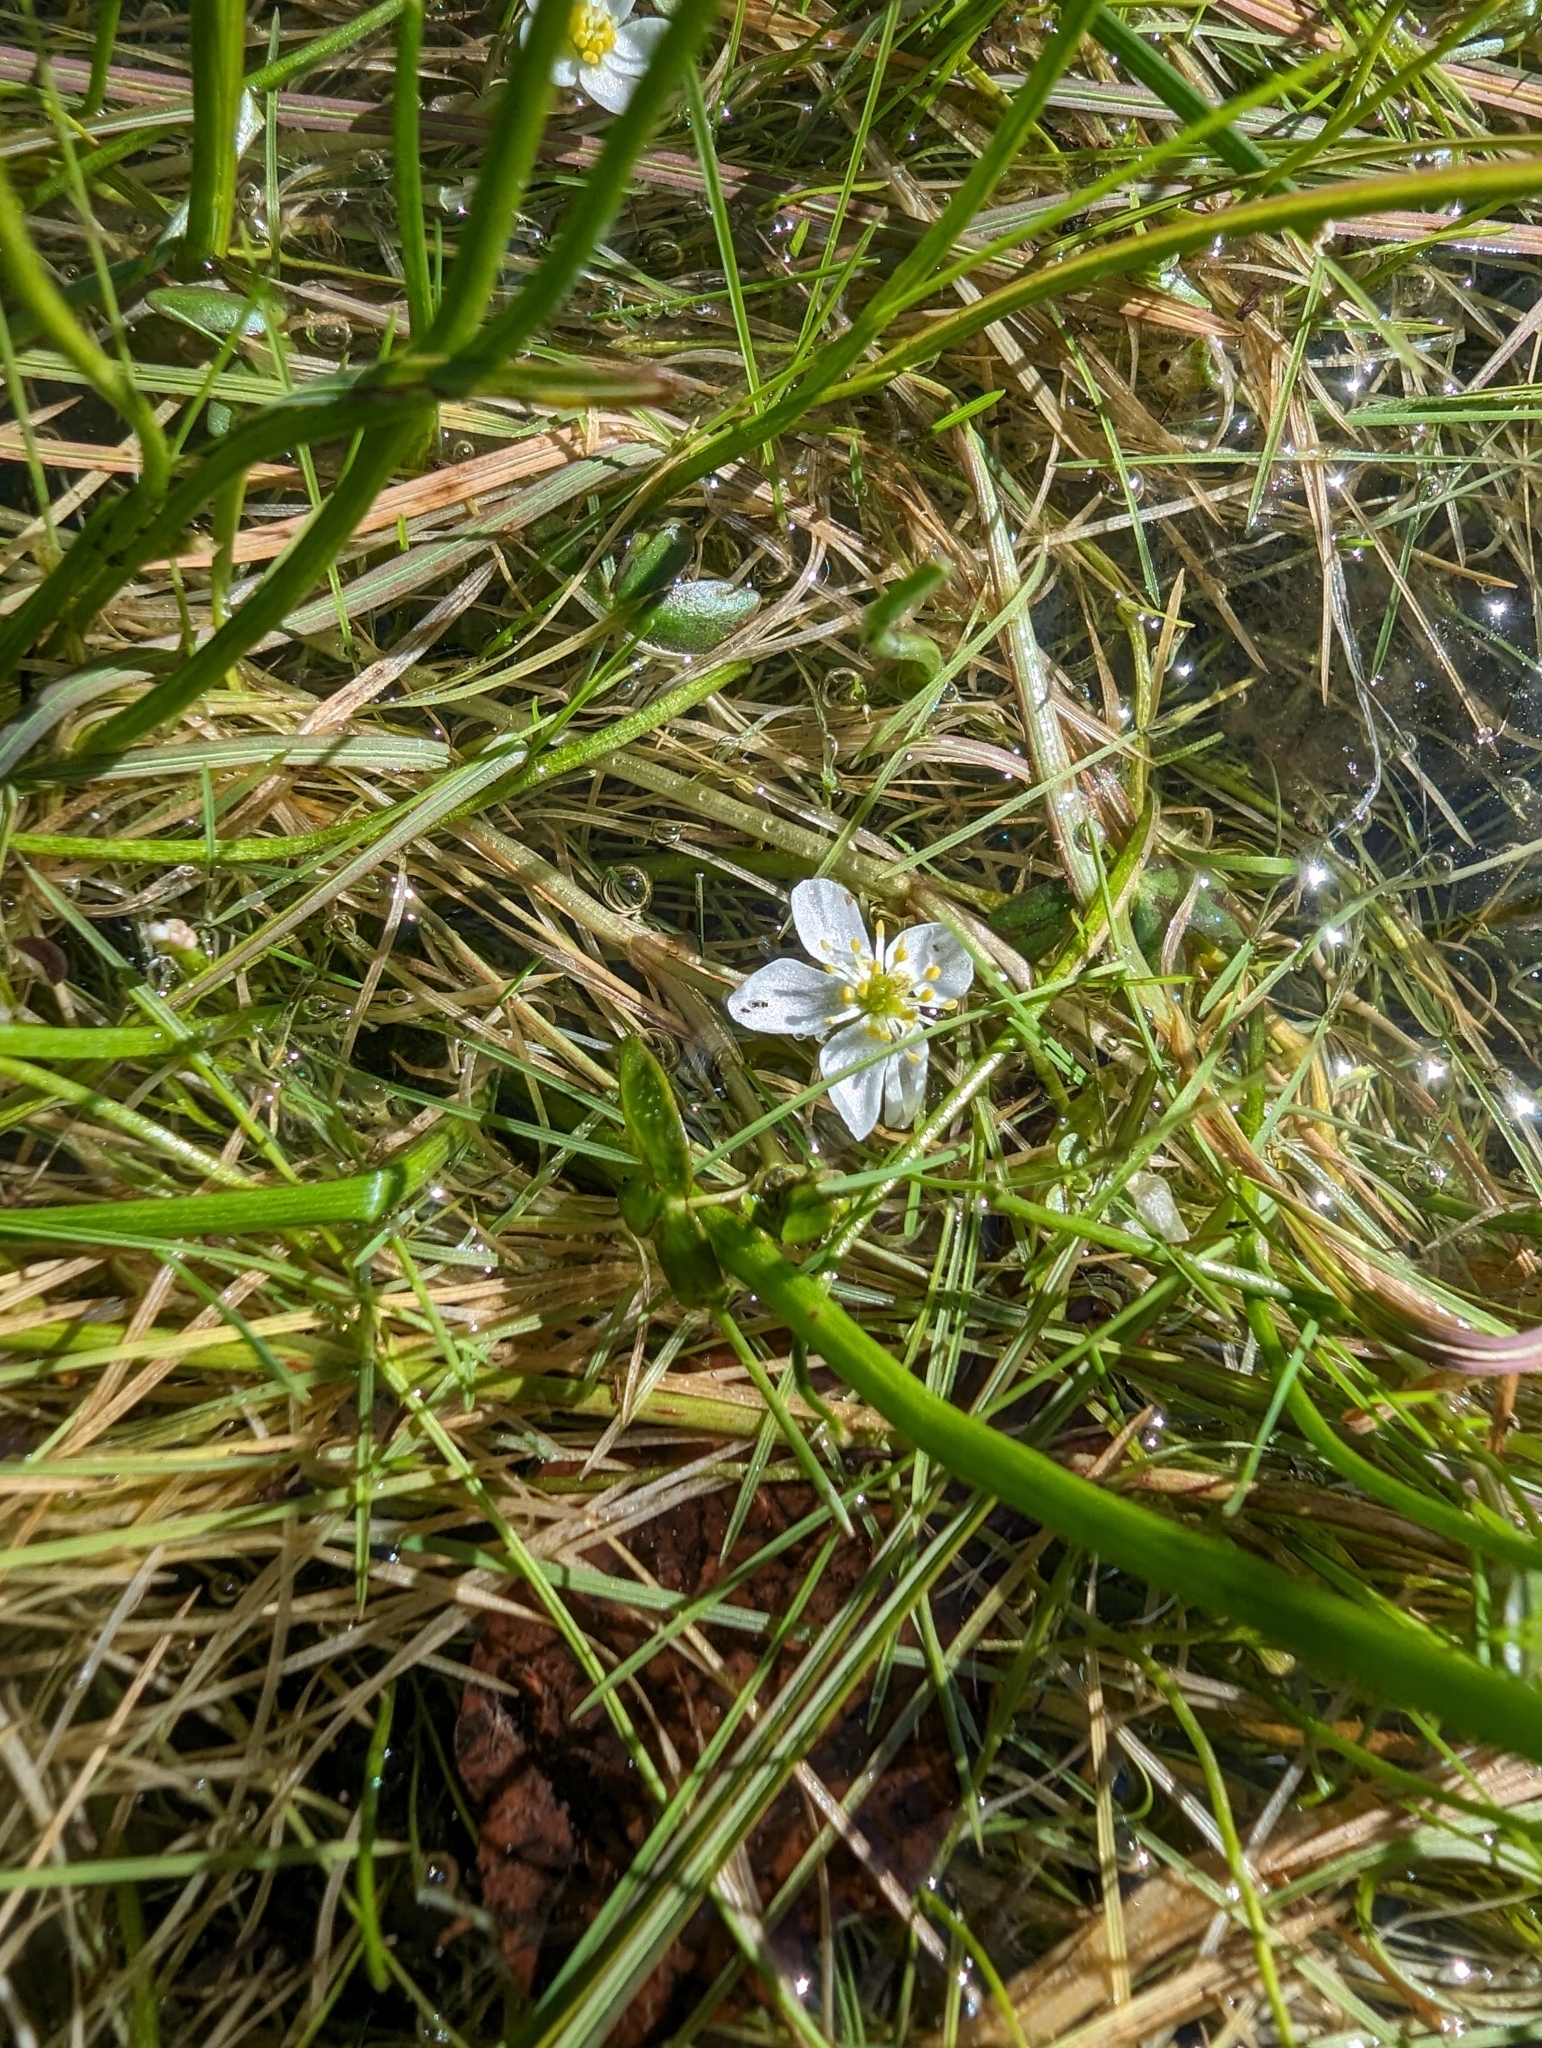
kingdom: Plantae
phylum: Tracheophyta
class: Magnoliopsida
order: Ranunculales
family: Ranunculaceae
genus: Ranunculus
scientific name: Ranunculus lobbii
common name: Lobb's buttercup
